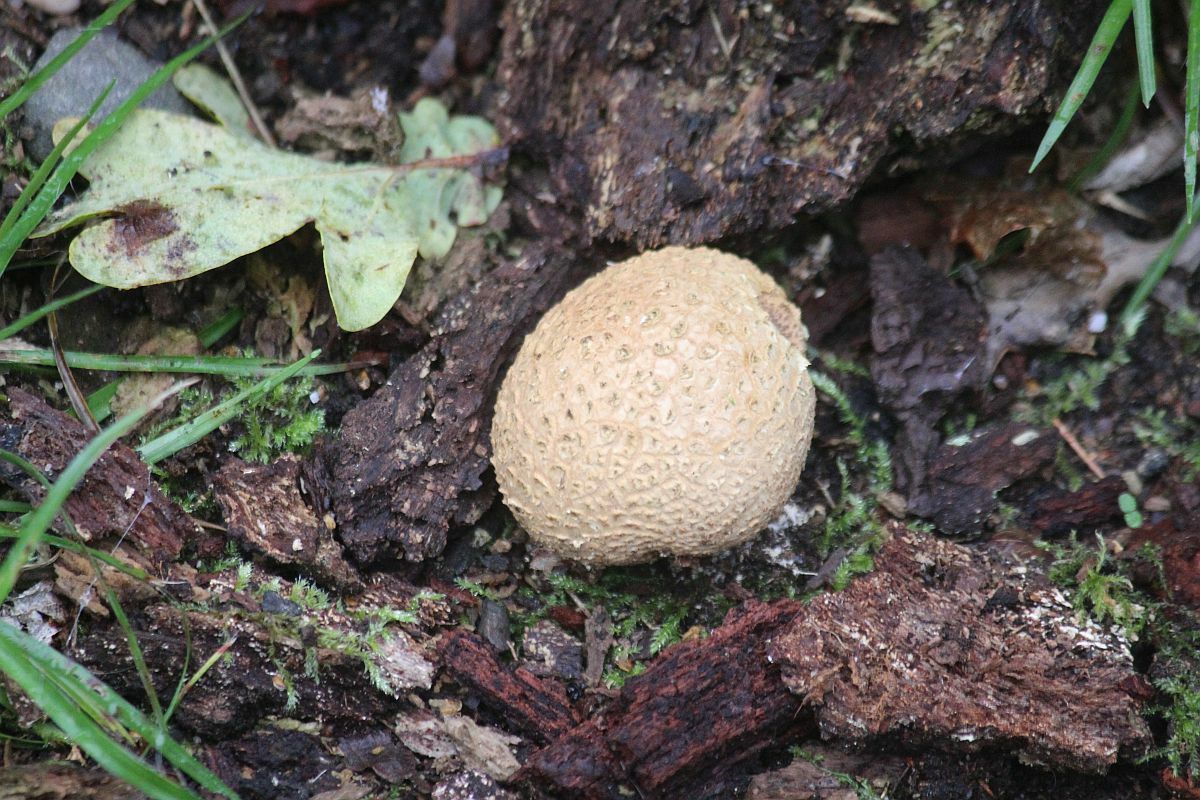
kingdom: Fungi
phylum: Basidiomycota
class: Agaricomycetes
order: Boletales
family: Sclerodermataceae
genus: Scleroderma
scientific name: Scleroderma citrinum
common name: Common earthball
